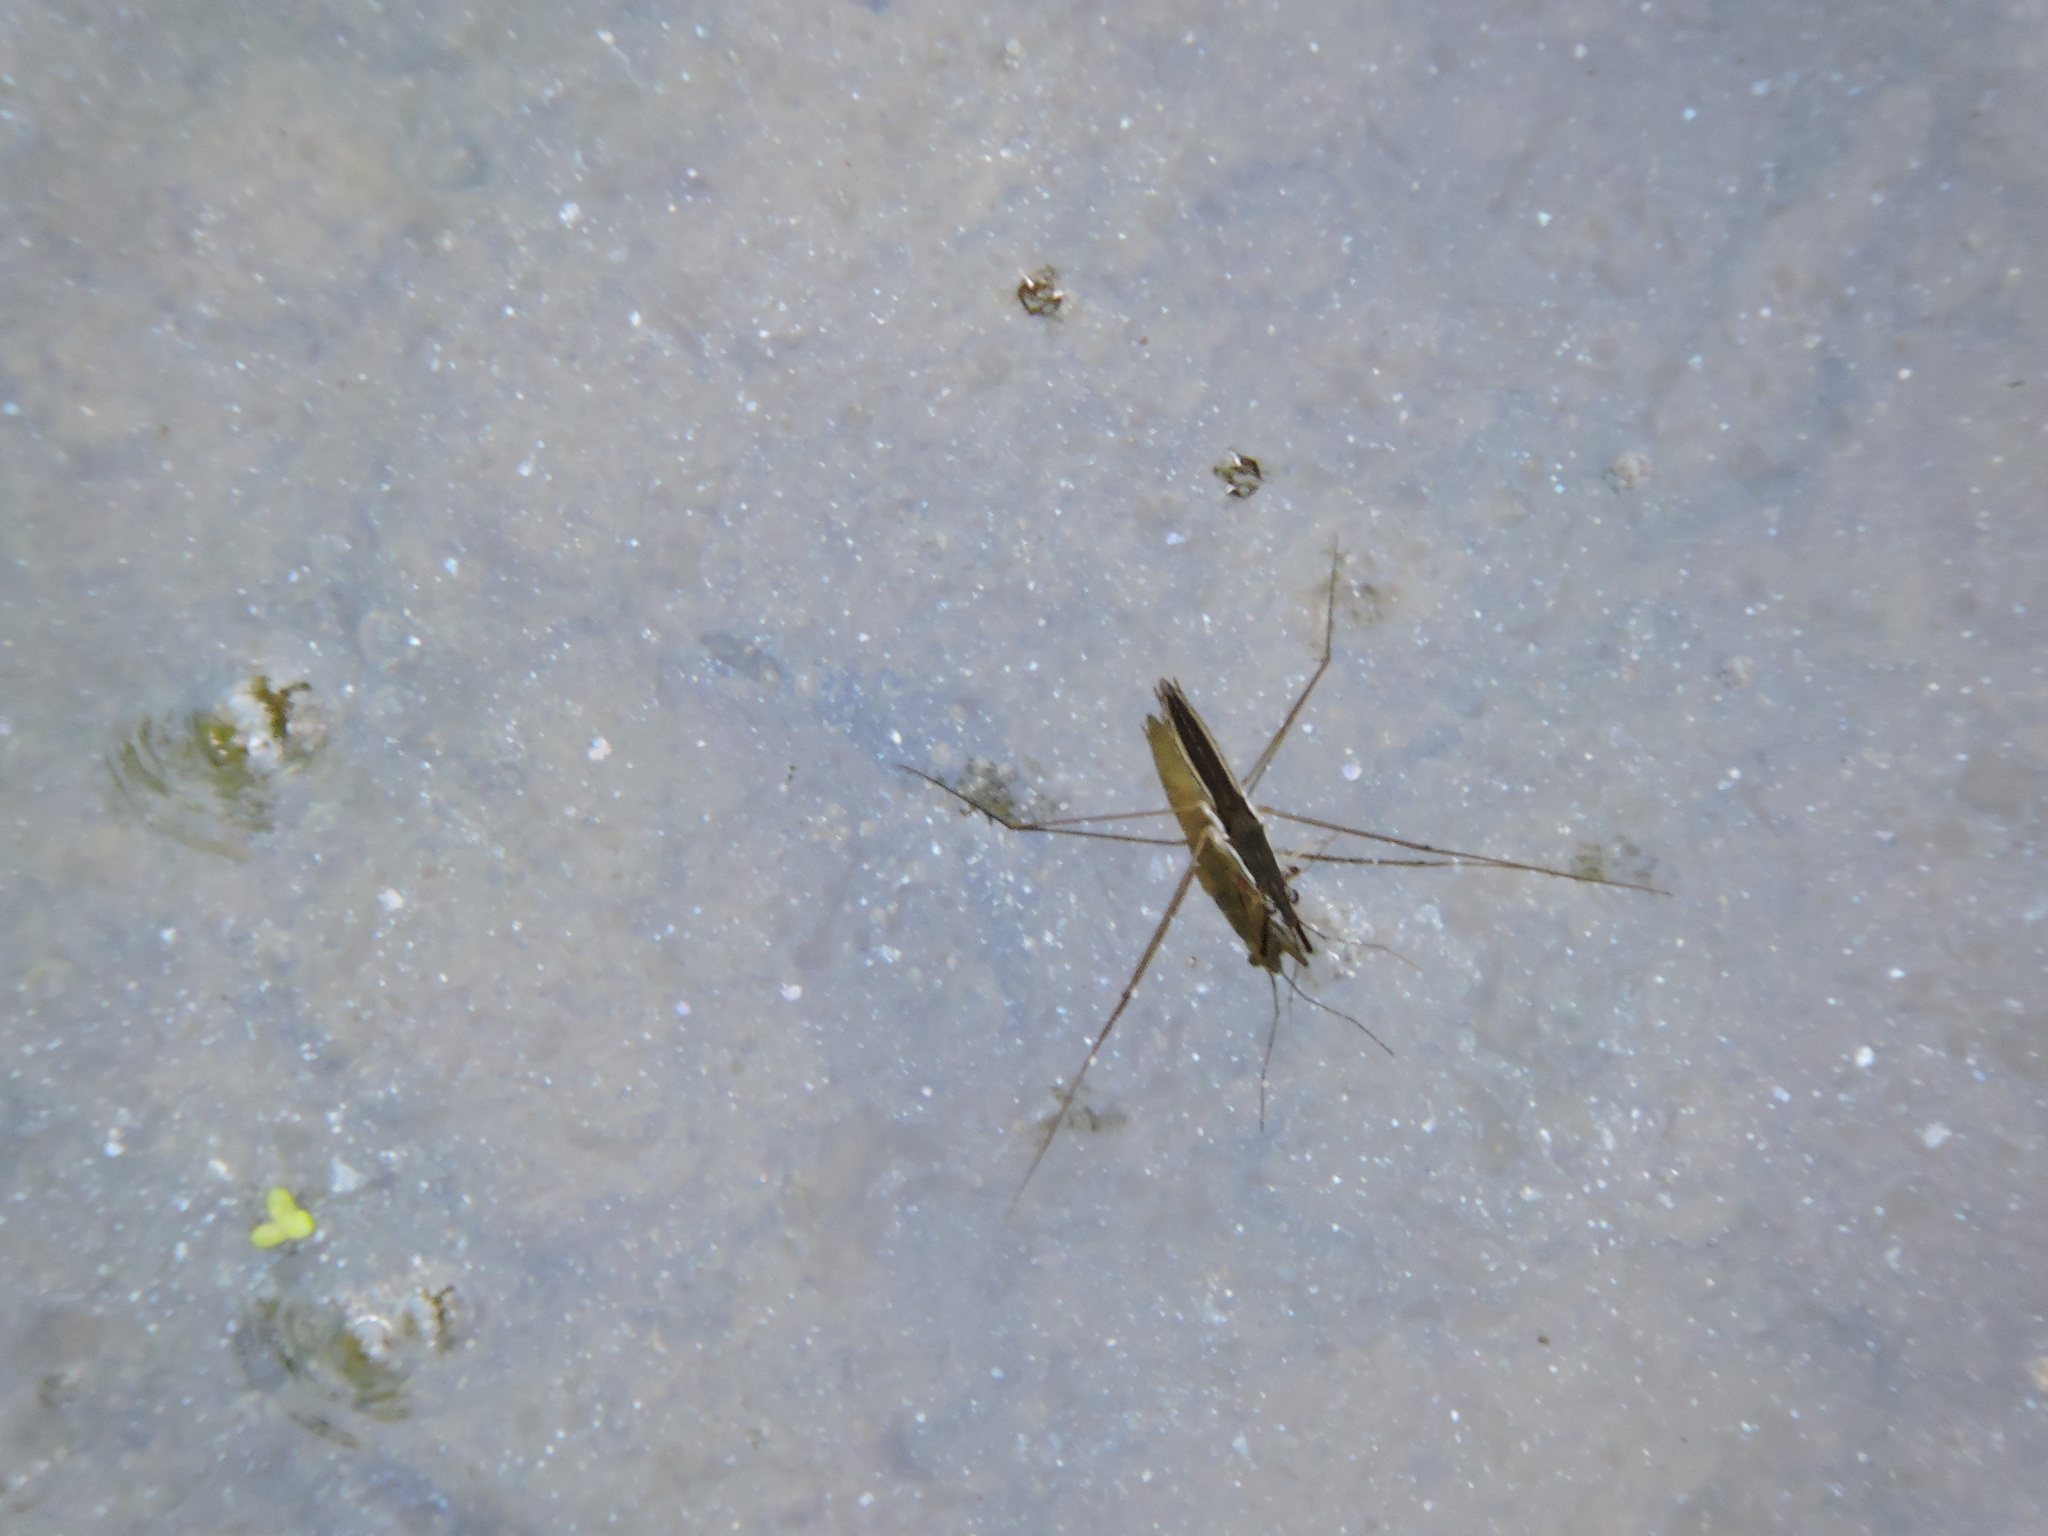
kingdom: Animalia
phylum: Arthropoda
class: Insecta
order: Hemiptera
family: Gerridae
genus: Limnoporus
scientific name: Limnoporus canaliculatus
